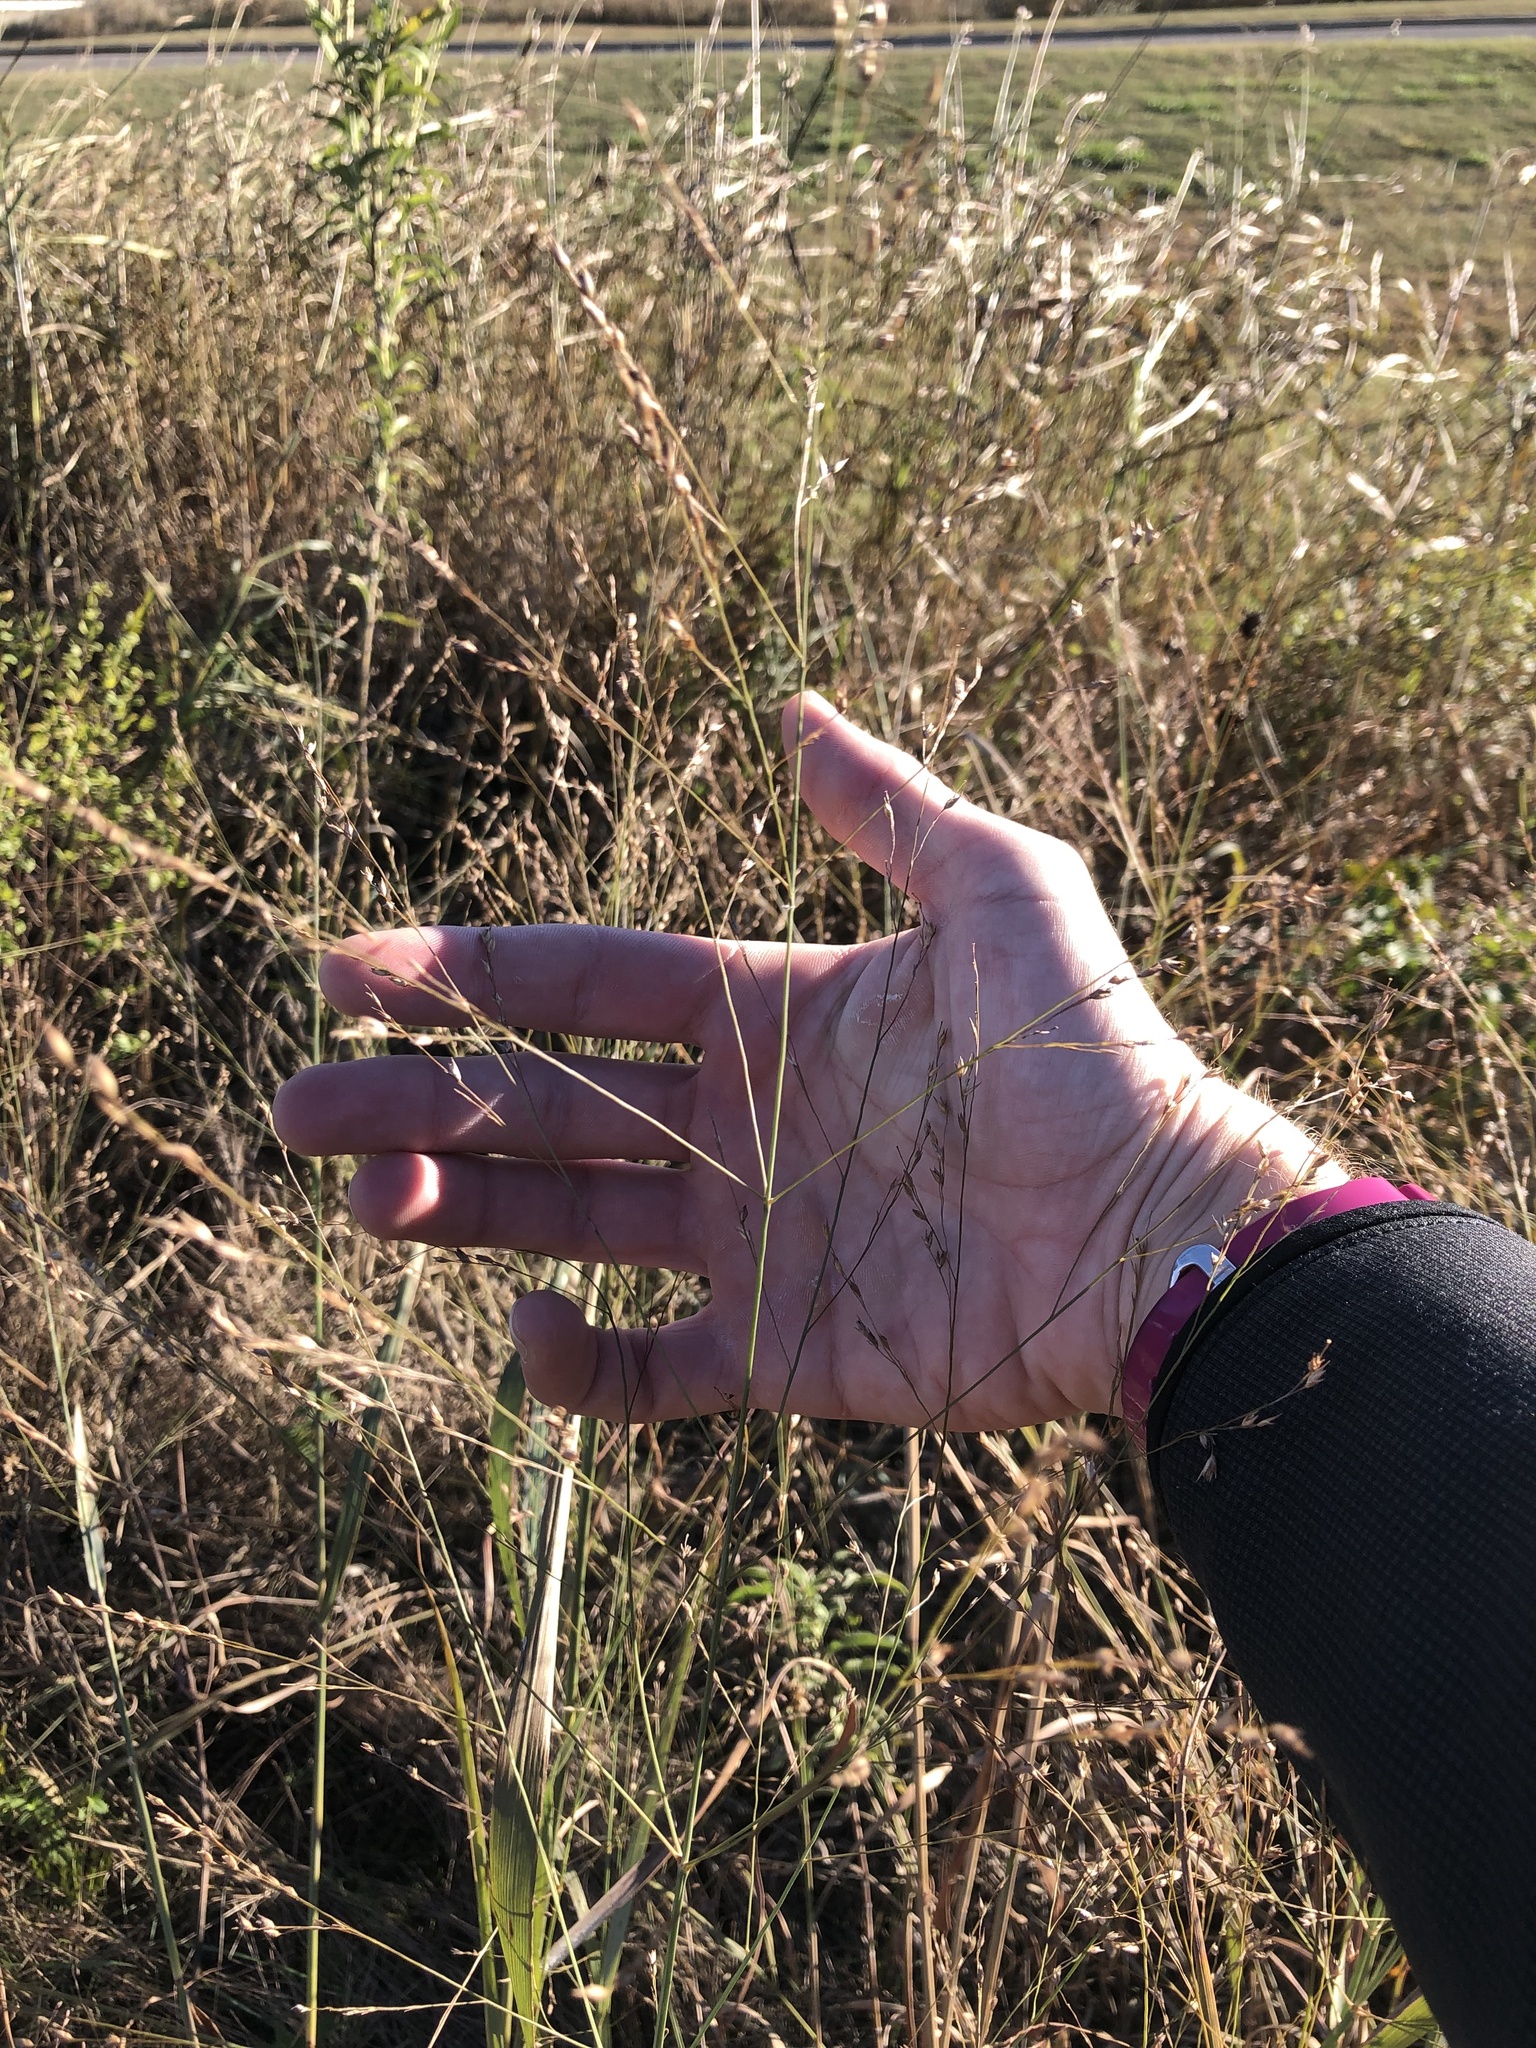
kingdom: Plantae
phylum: Tracheophyta
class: Liliopsida
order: Poales
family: Poaceae
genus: Panicum
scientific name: Panicum virgatum
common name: Switchgrass
